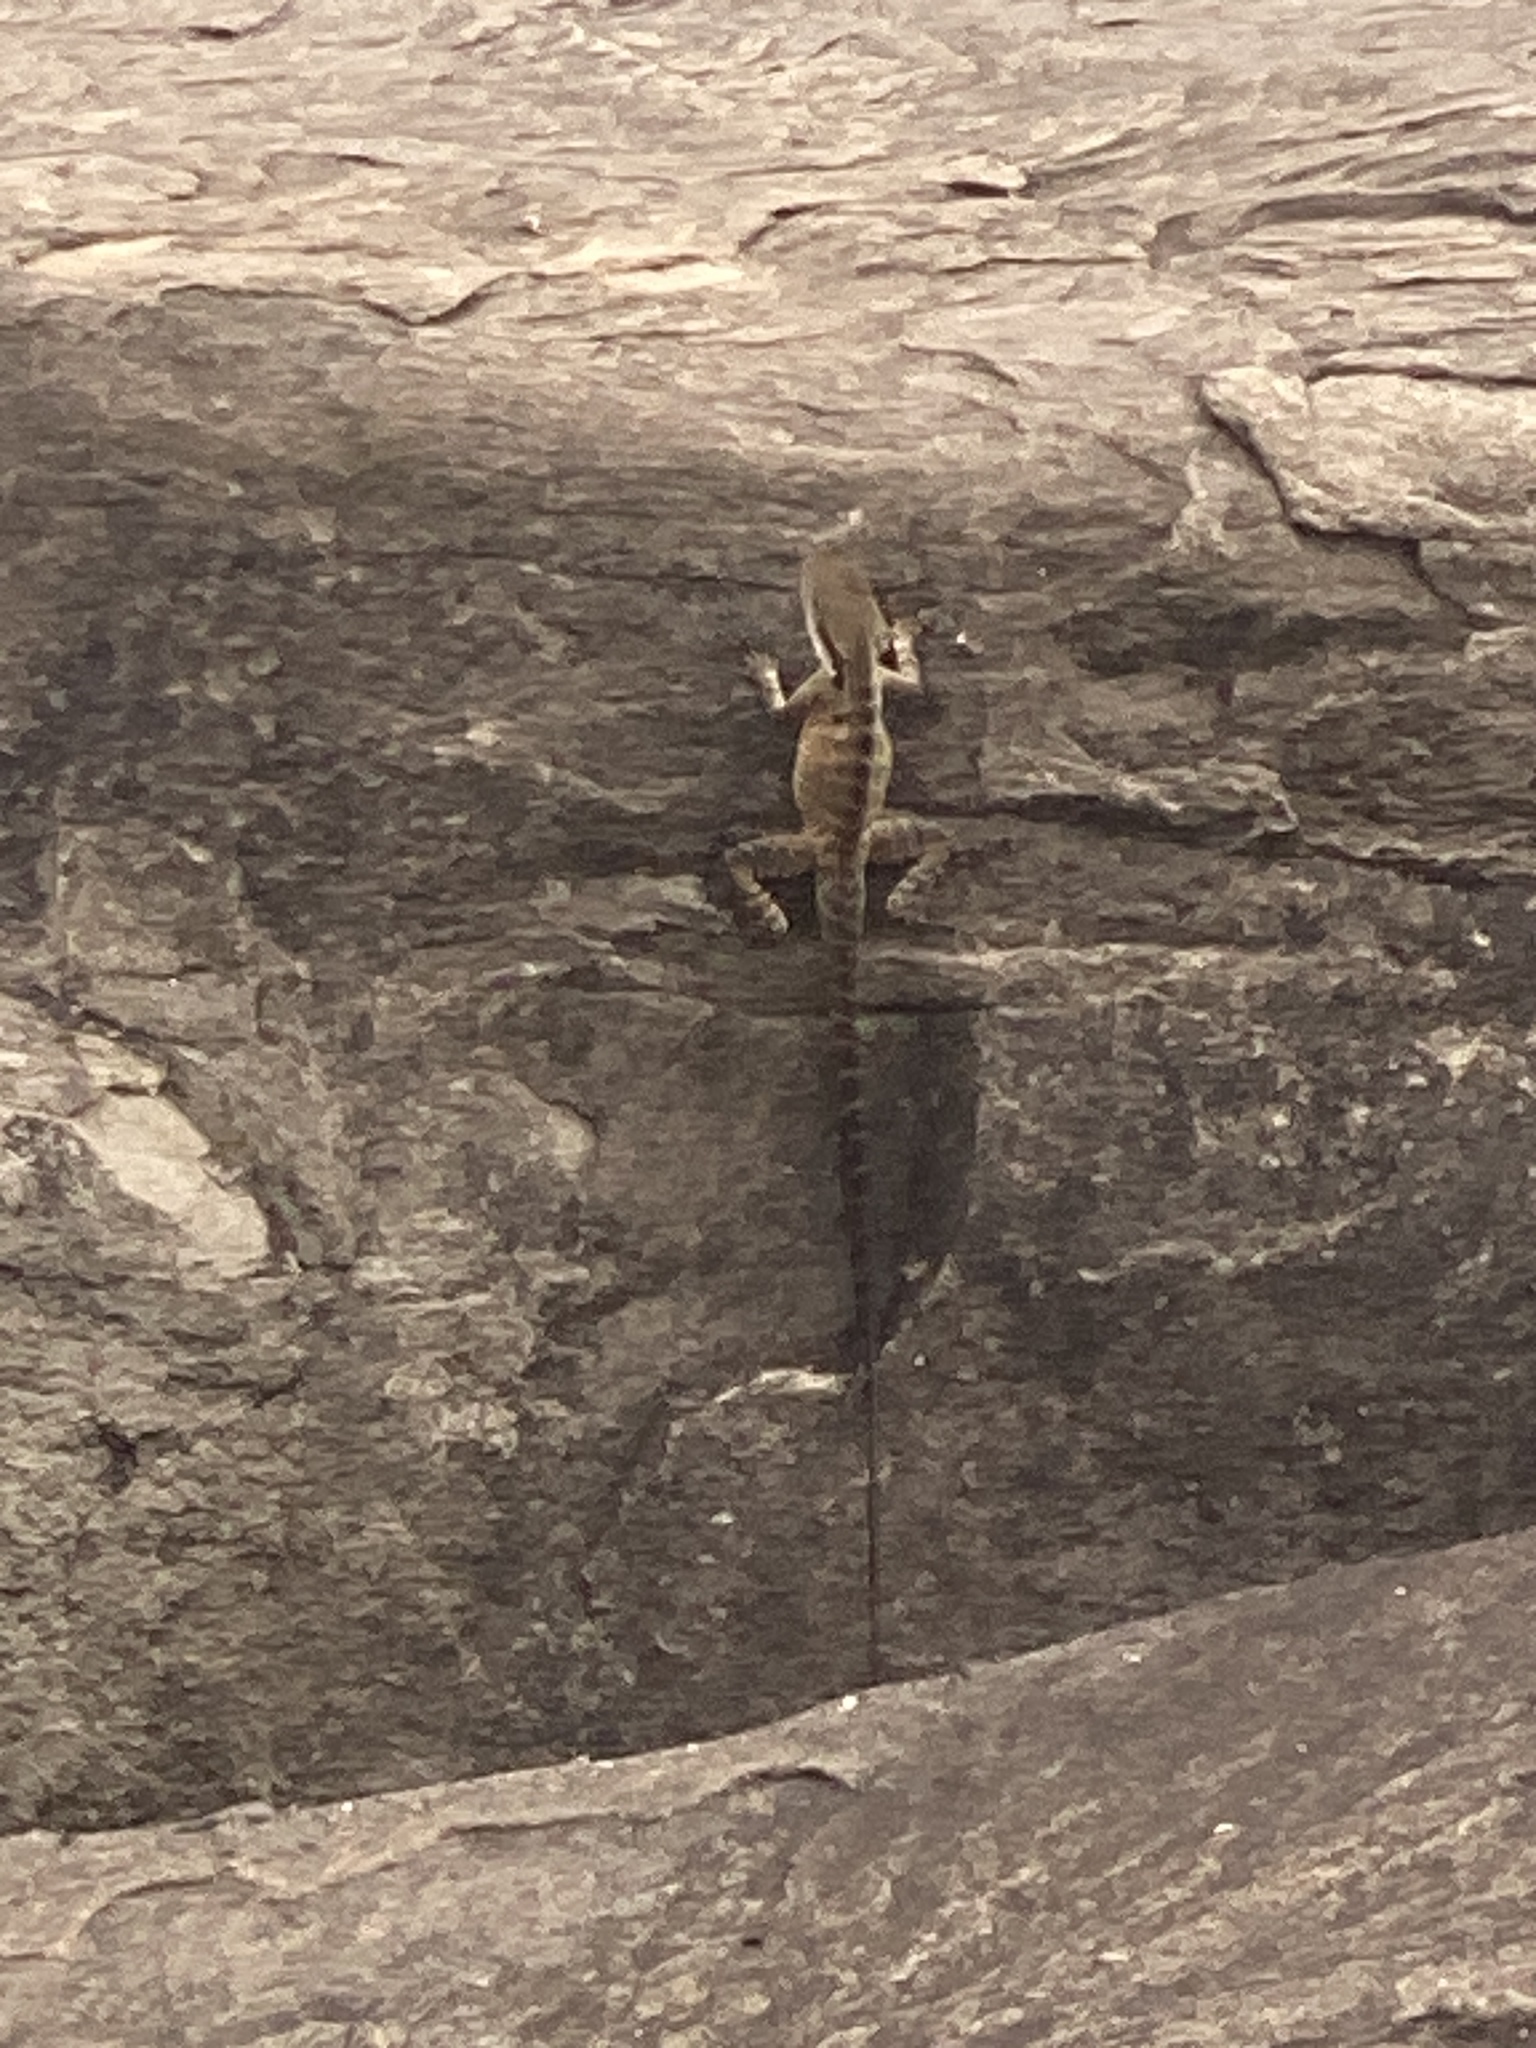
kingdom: Animalia
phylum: Chordata
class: Squamata
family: Agamidae
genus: Intellagama
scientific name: Intellagama lesueurii
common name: Eastern water dragon
